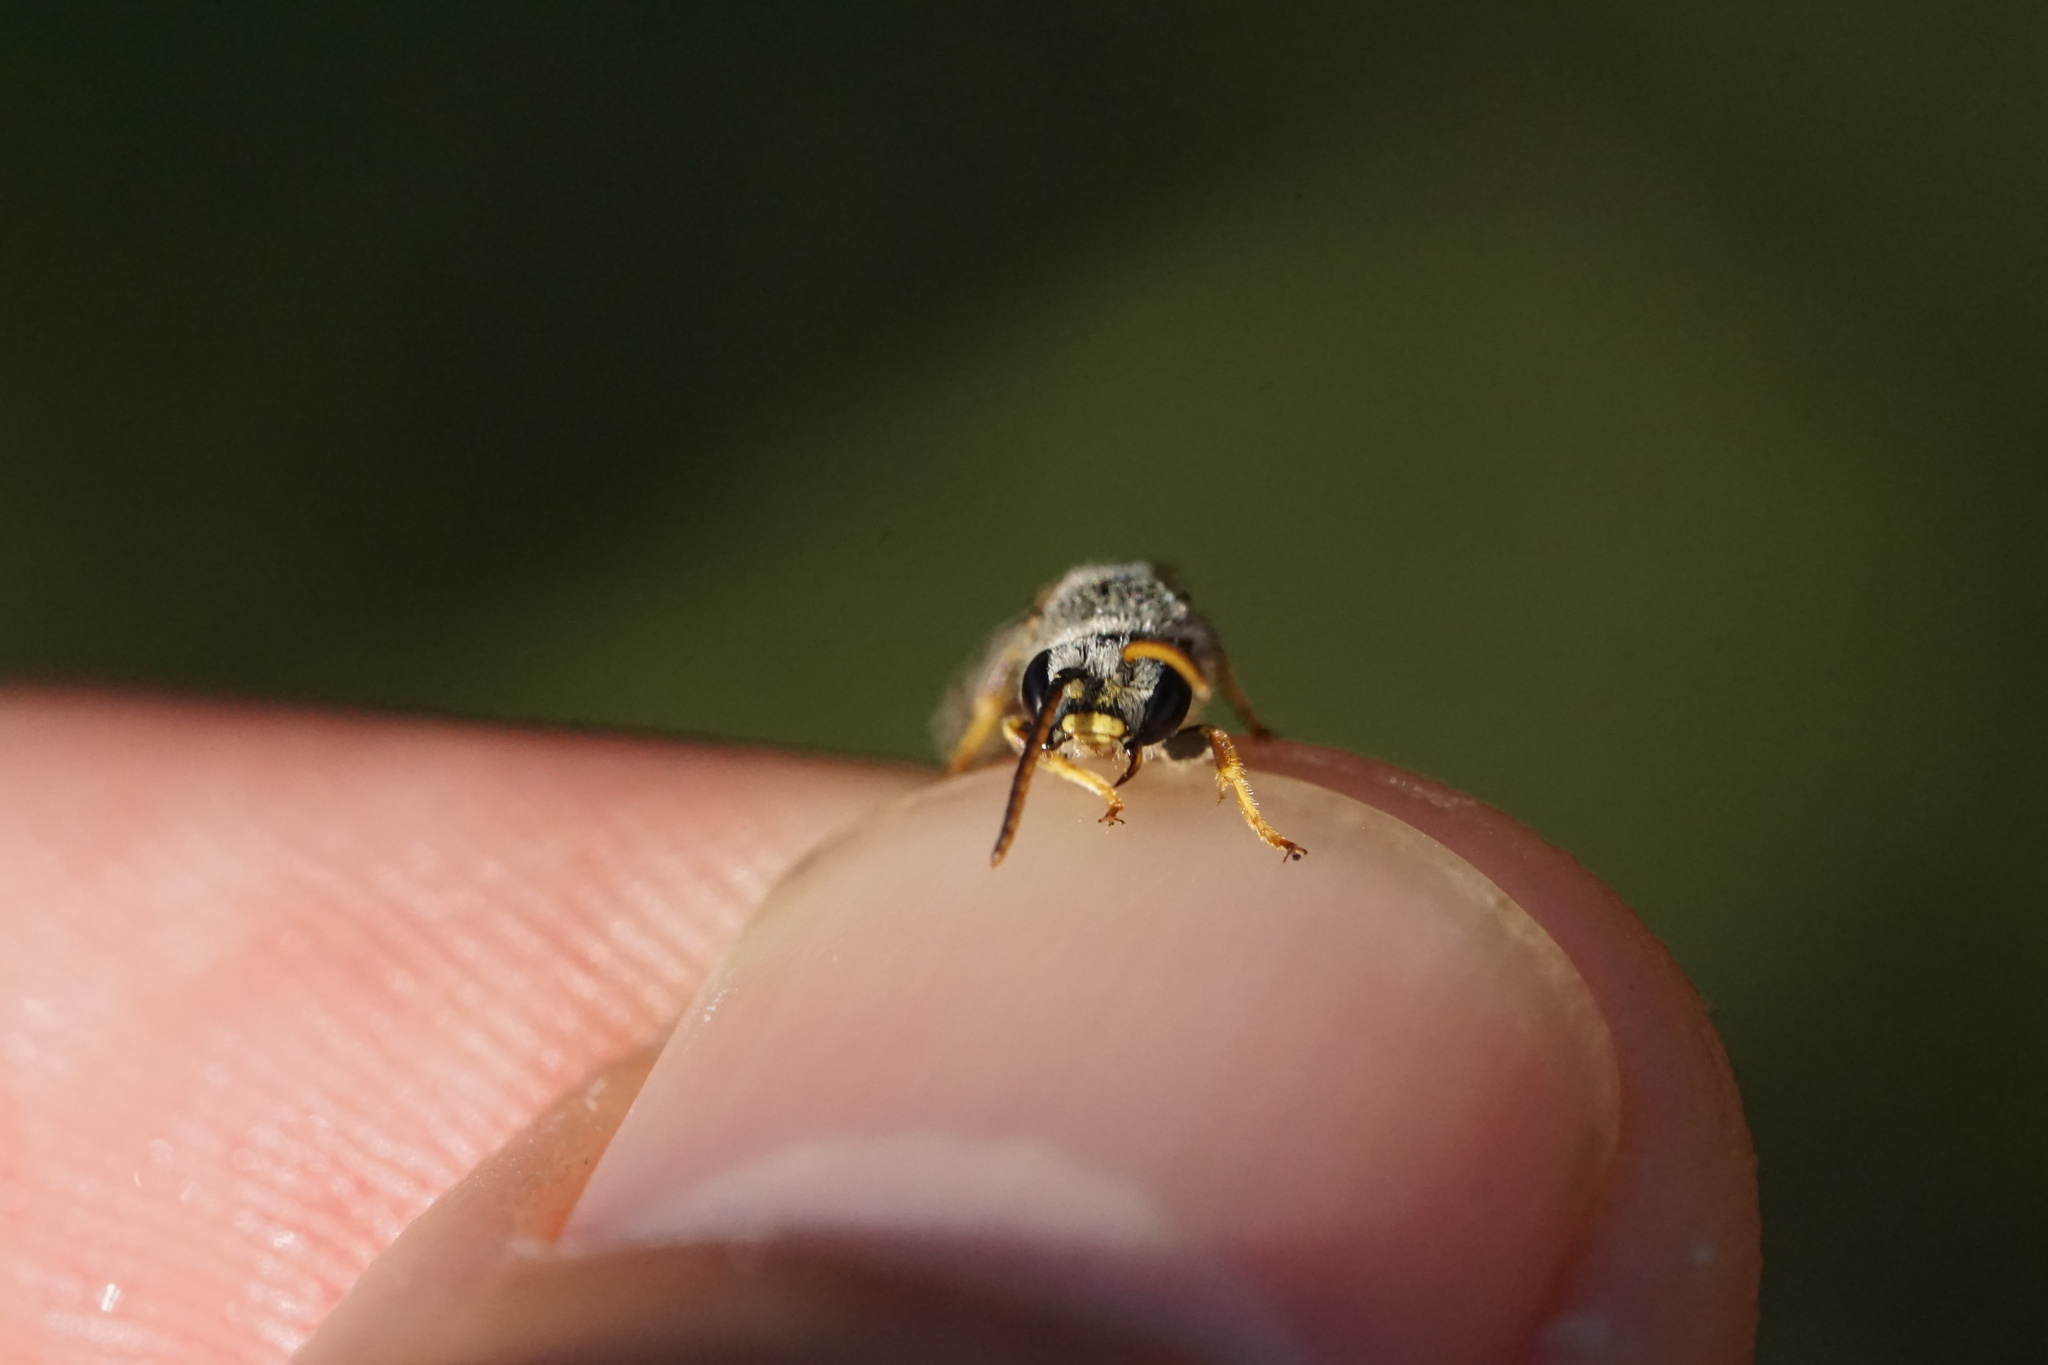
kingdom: Animalia
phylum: Arthropoda
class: Insecta
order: Hymenoptera
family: Halictidae
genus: Halictus
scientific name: Halictus ligatus
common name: Ligated furrow bee
